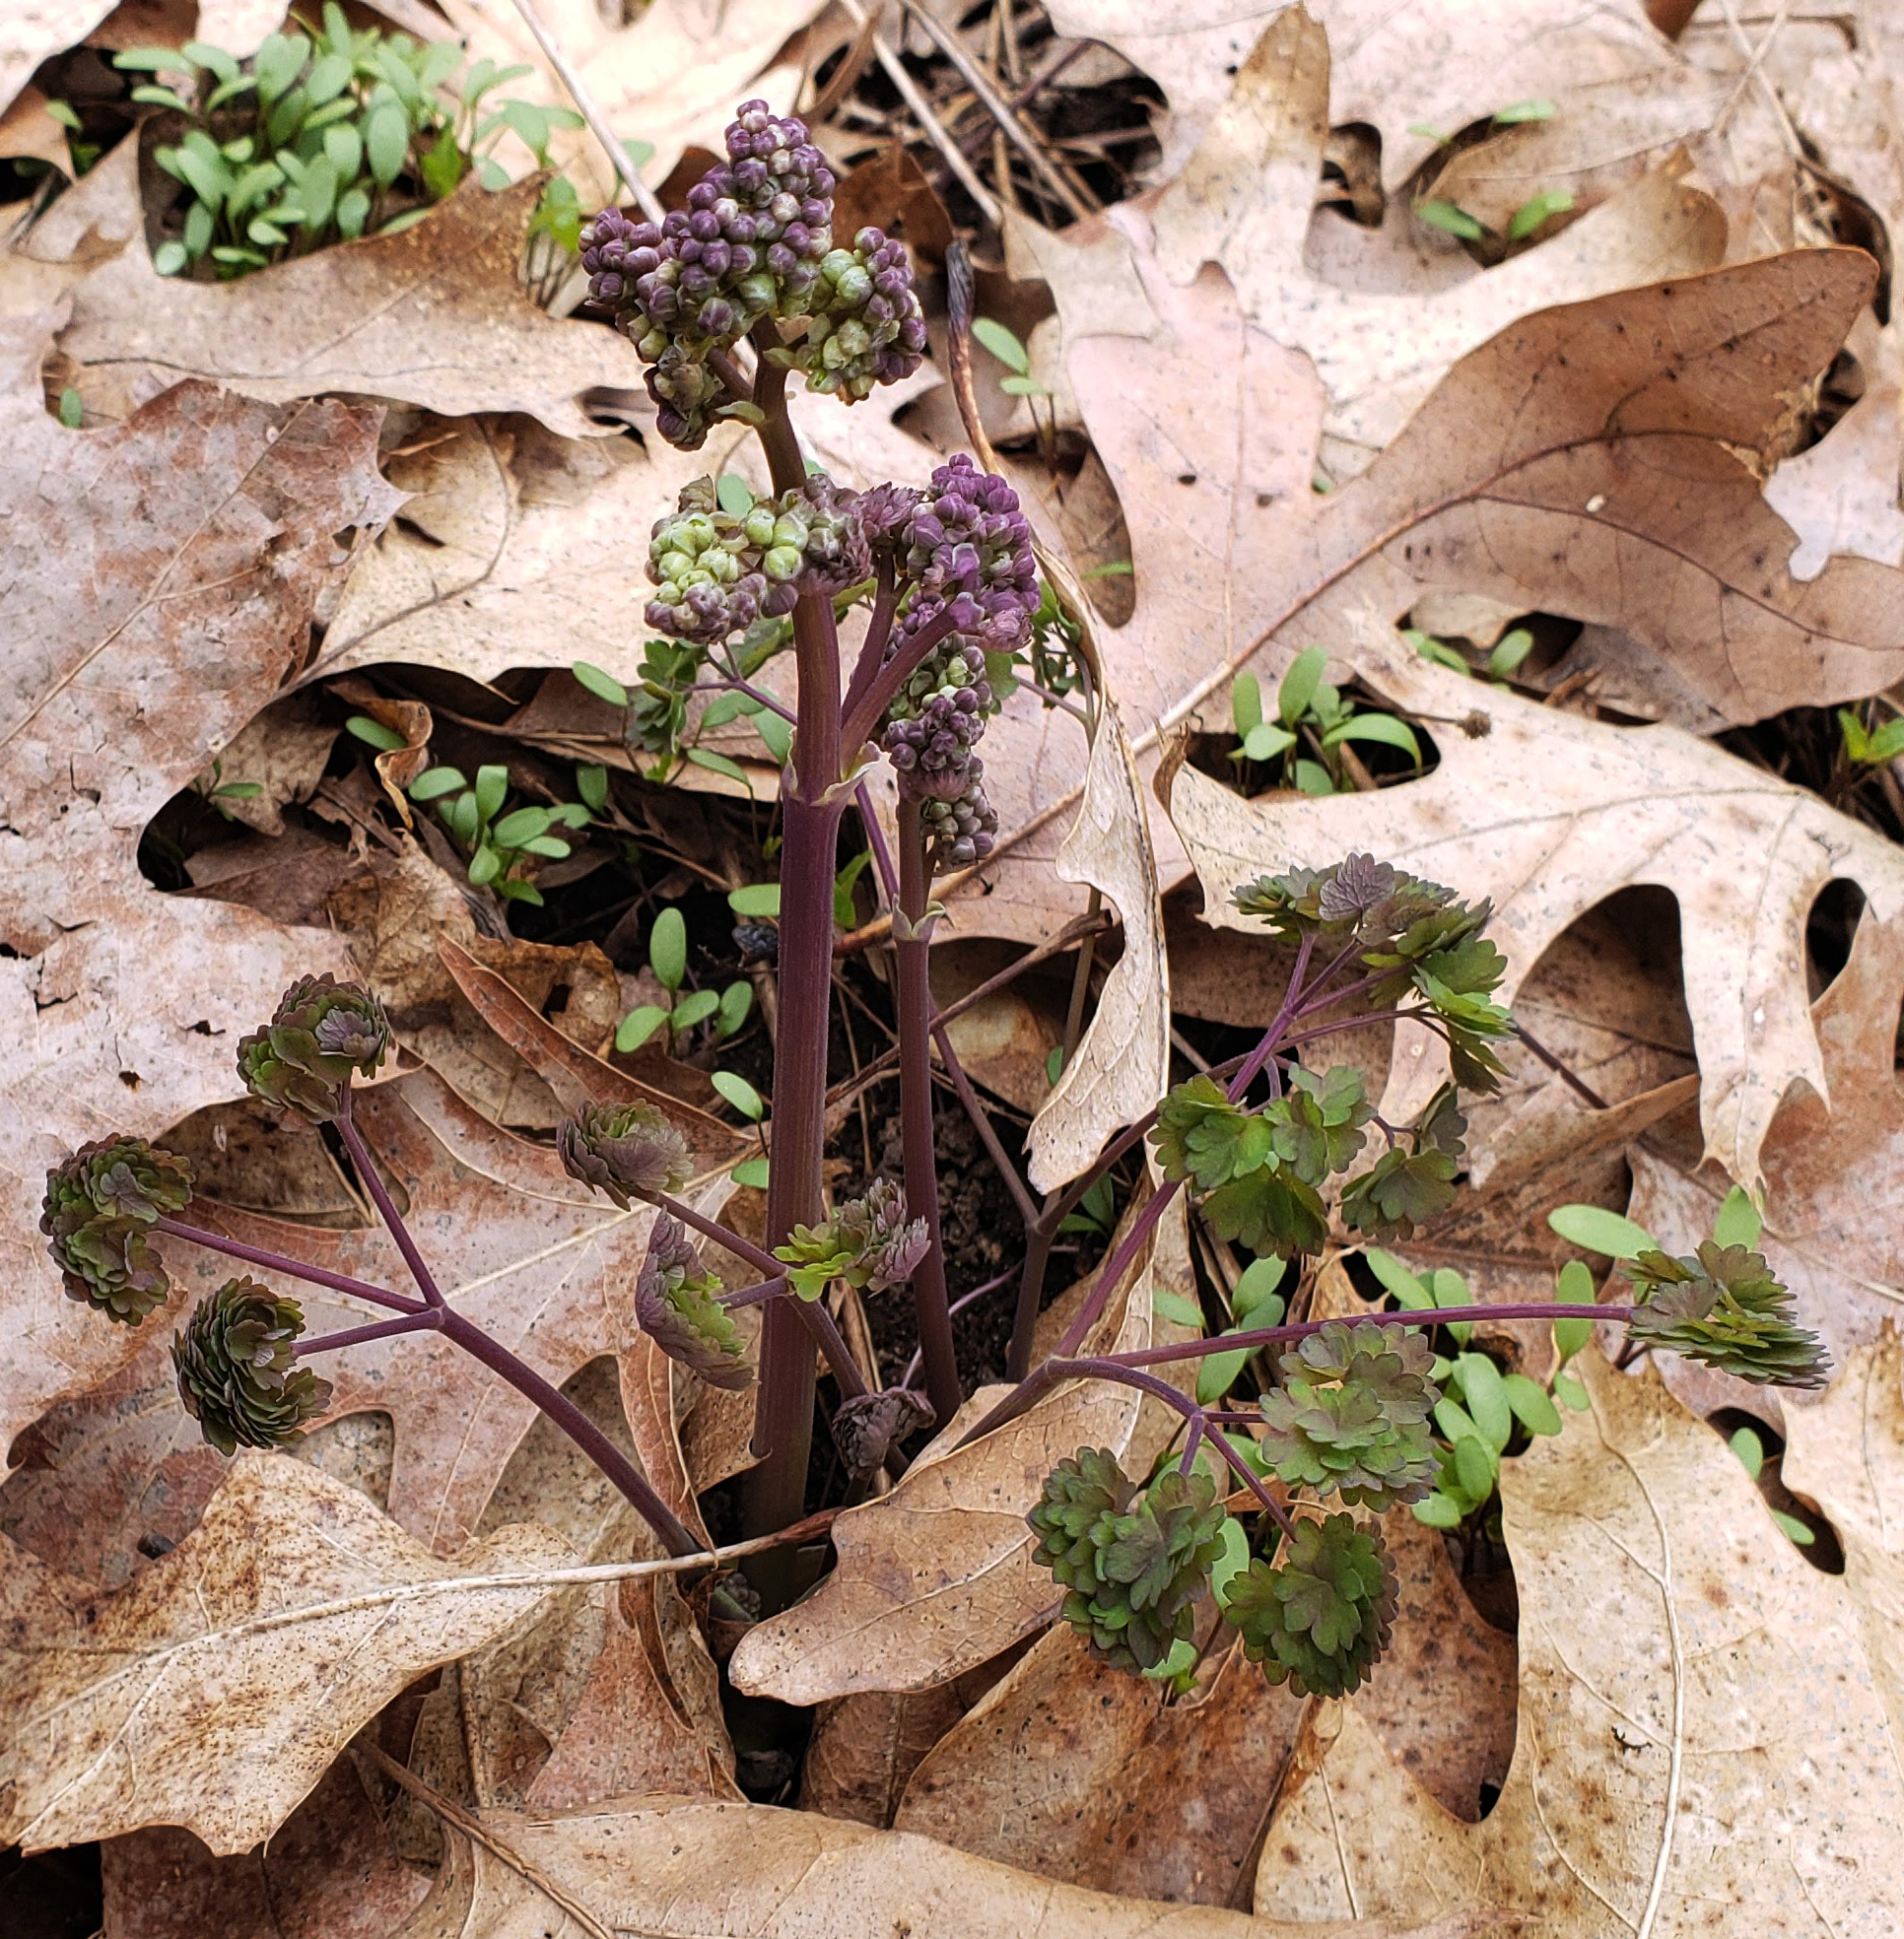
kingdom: Plantae
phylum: Tracheophyta
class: Magnoliopsida
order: Ranunculales
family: Ranunculaceae
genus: Thalictrum
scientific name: Thalictrum dioicum
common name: Early meadow-rue
